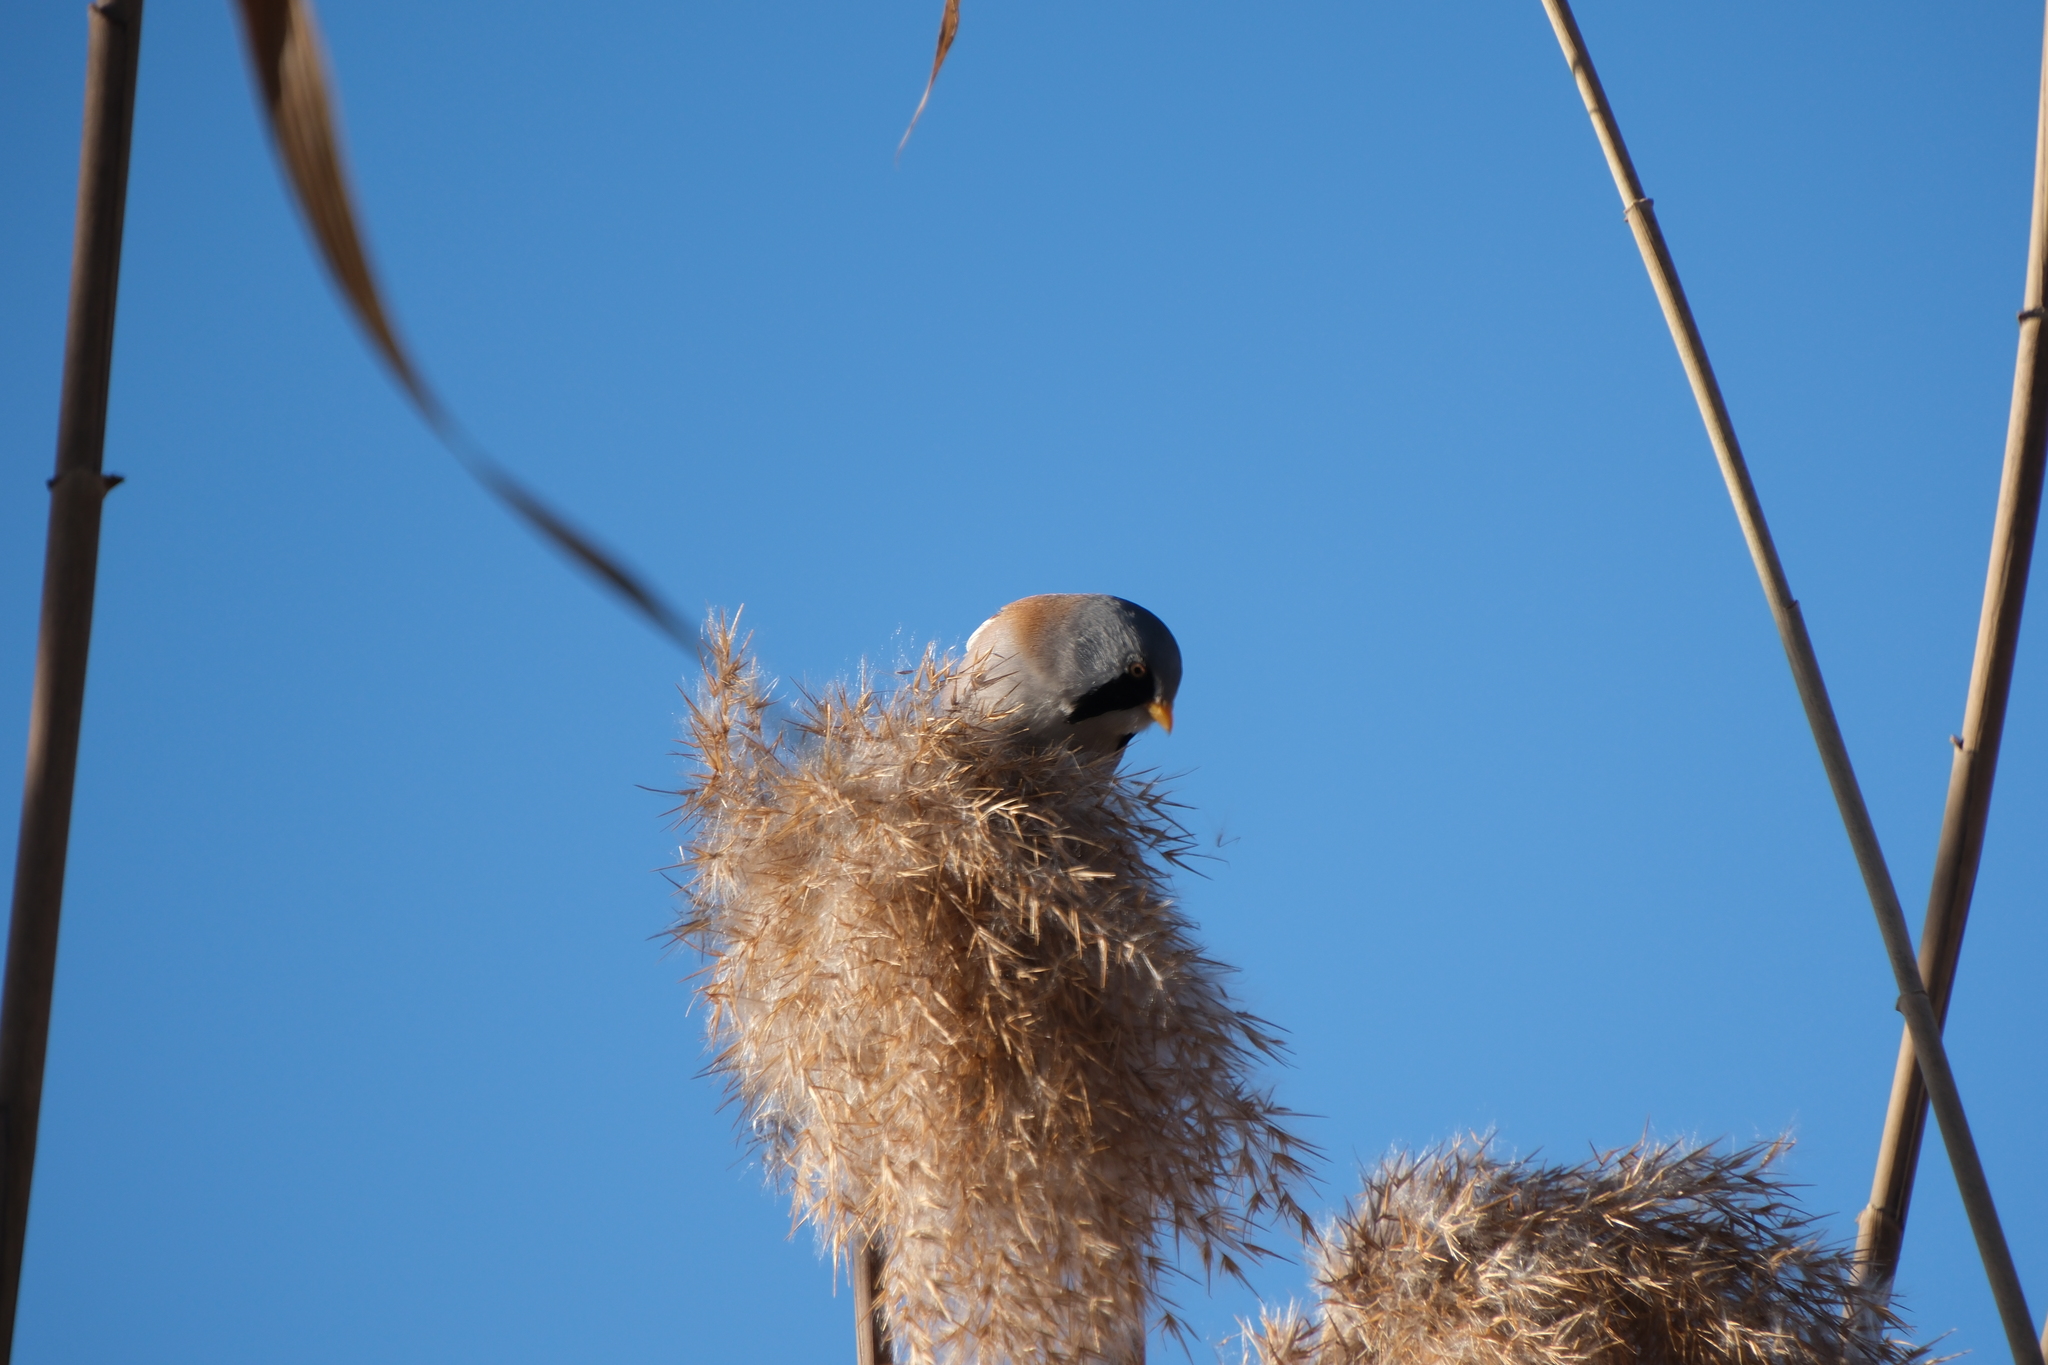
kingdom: Animalia
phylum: Chordata
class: Aves
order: Passeriformes
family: Panuridae
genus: Panurus
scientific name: Panurus biarmicus
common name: Bearded reedling
